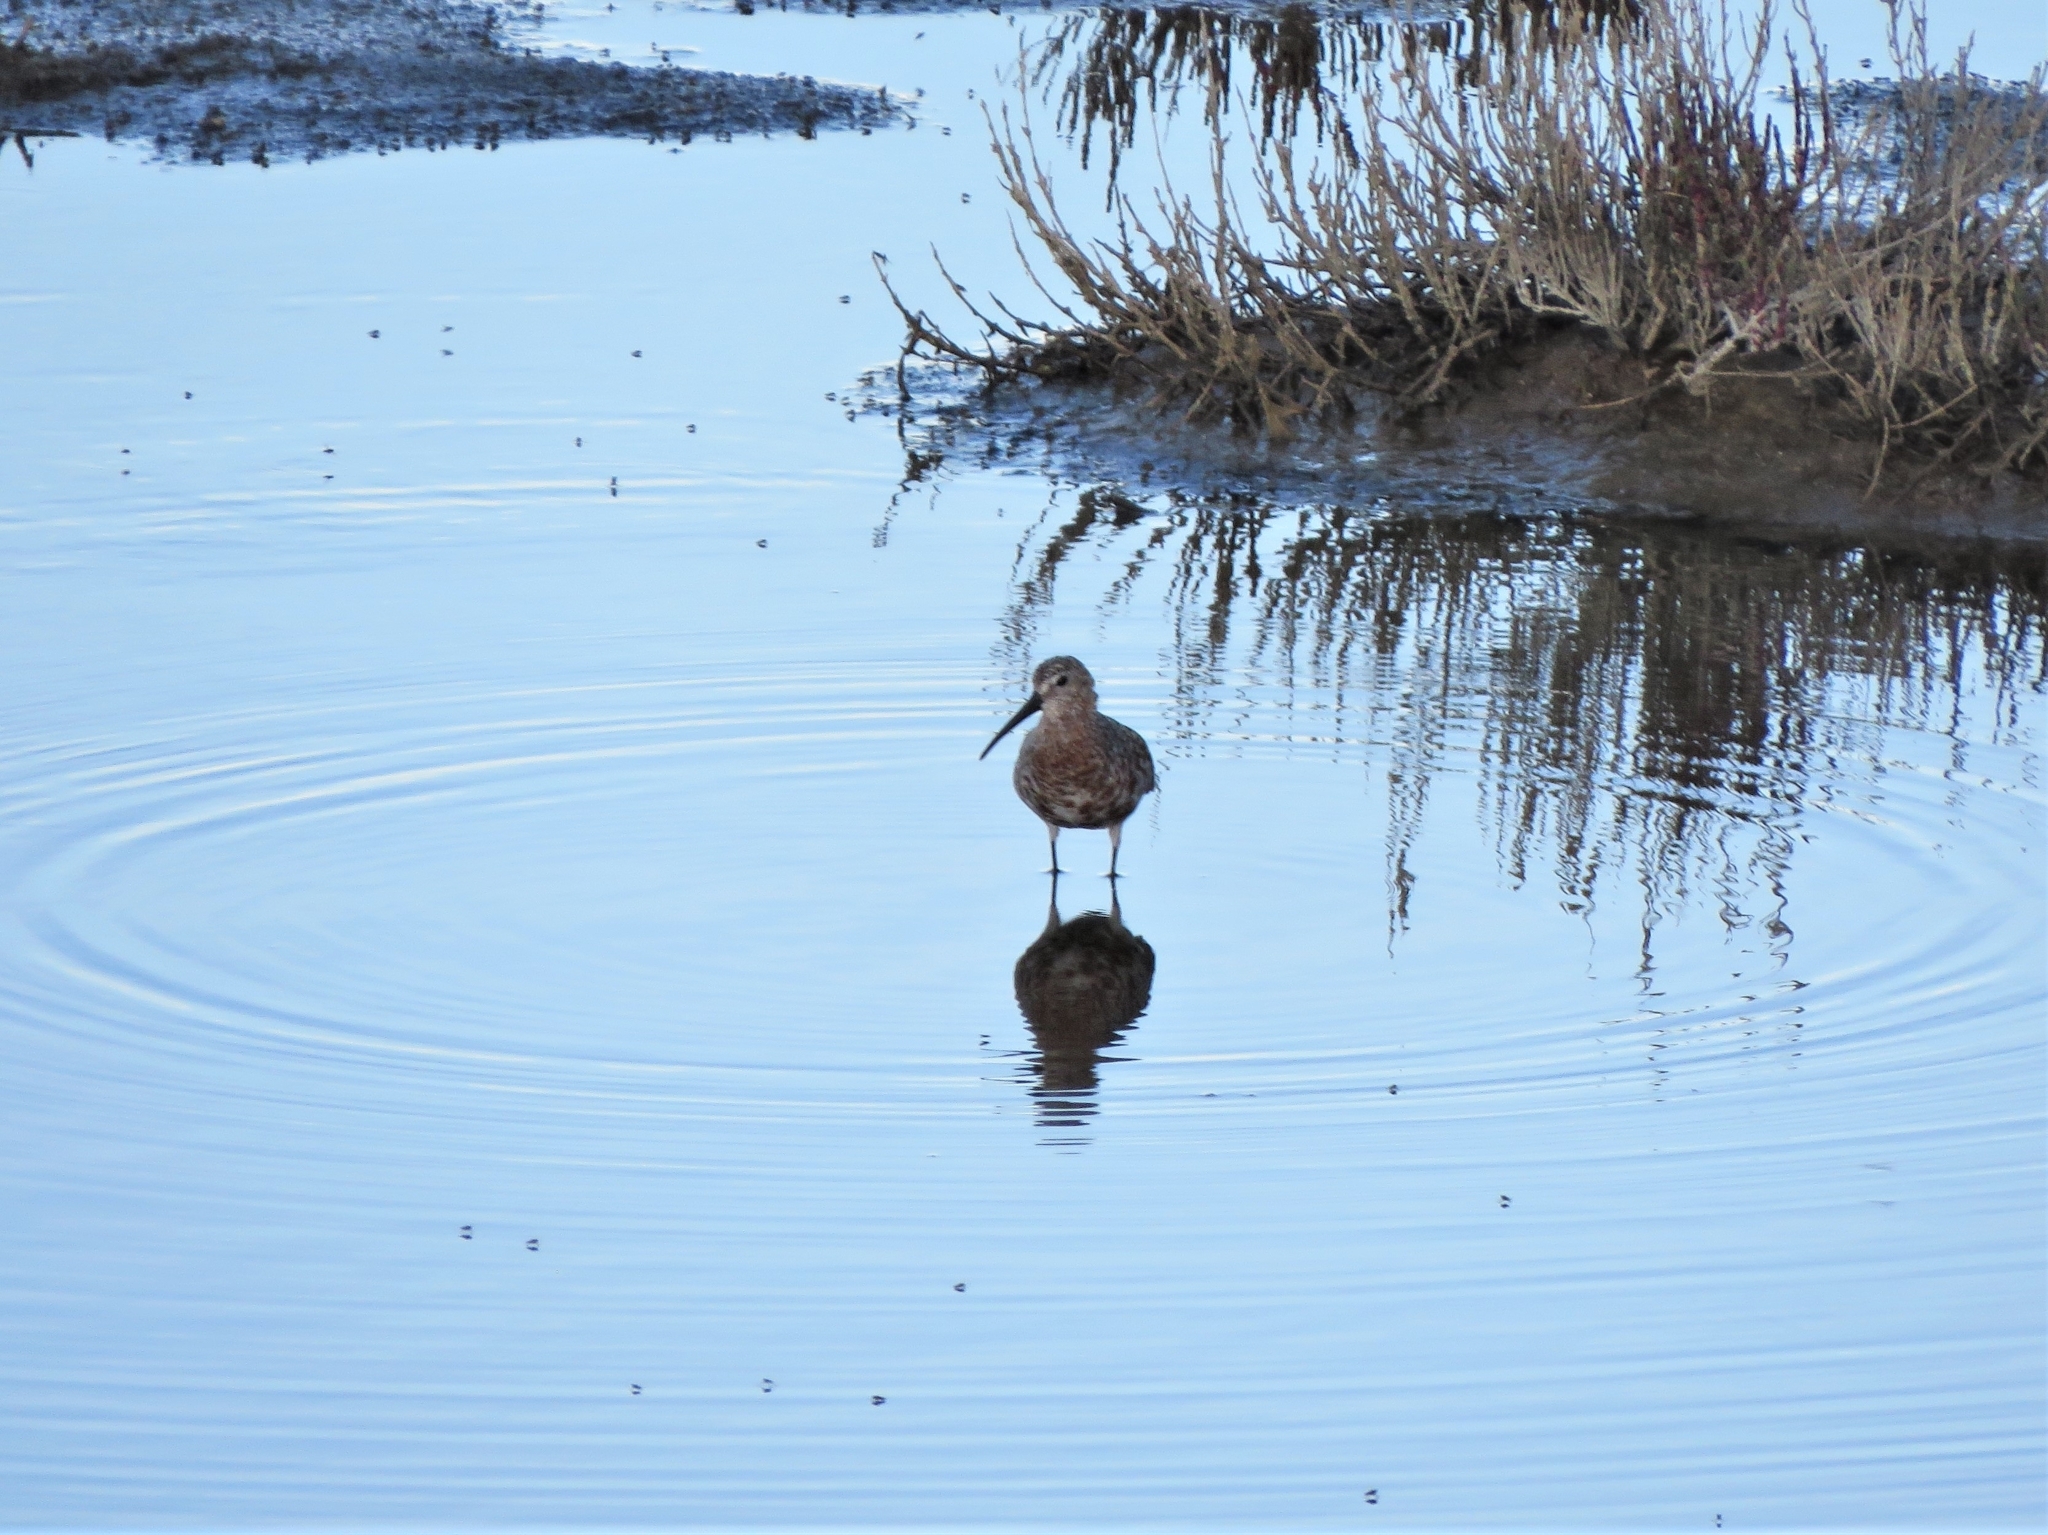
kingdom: Animalia
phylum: Chordata
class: Aves
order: Charadriiformes
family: Scolopacidae
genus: Calidris
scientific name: Calidris ferruginea
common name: Curlew sandpiper
